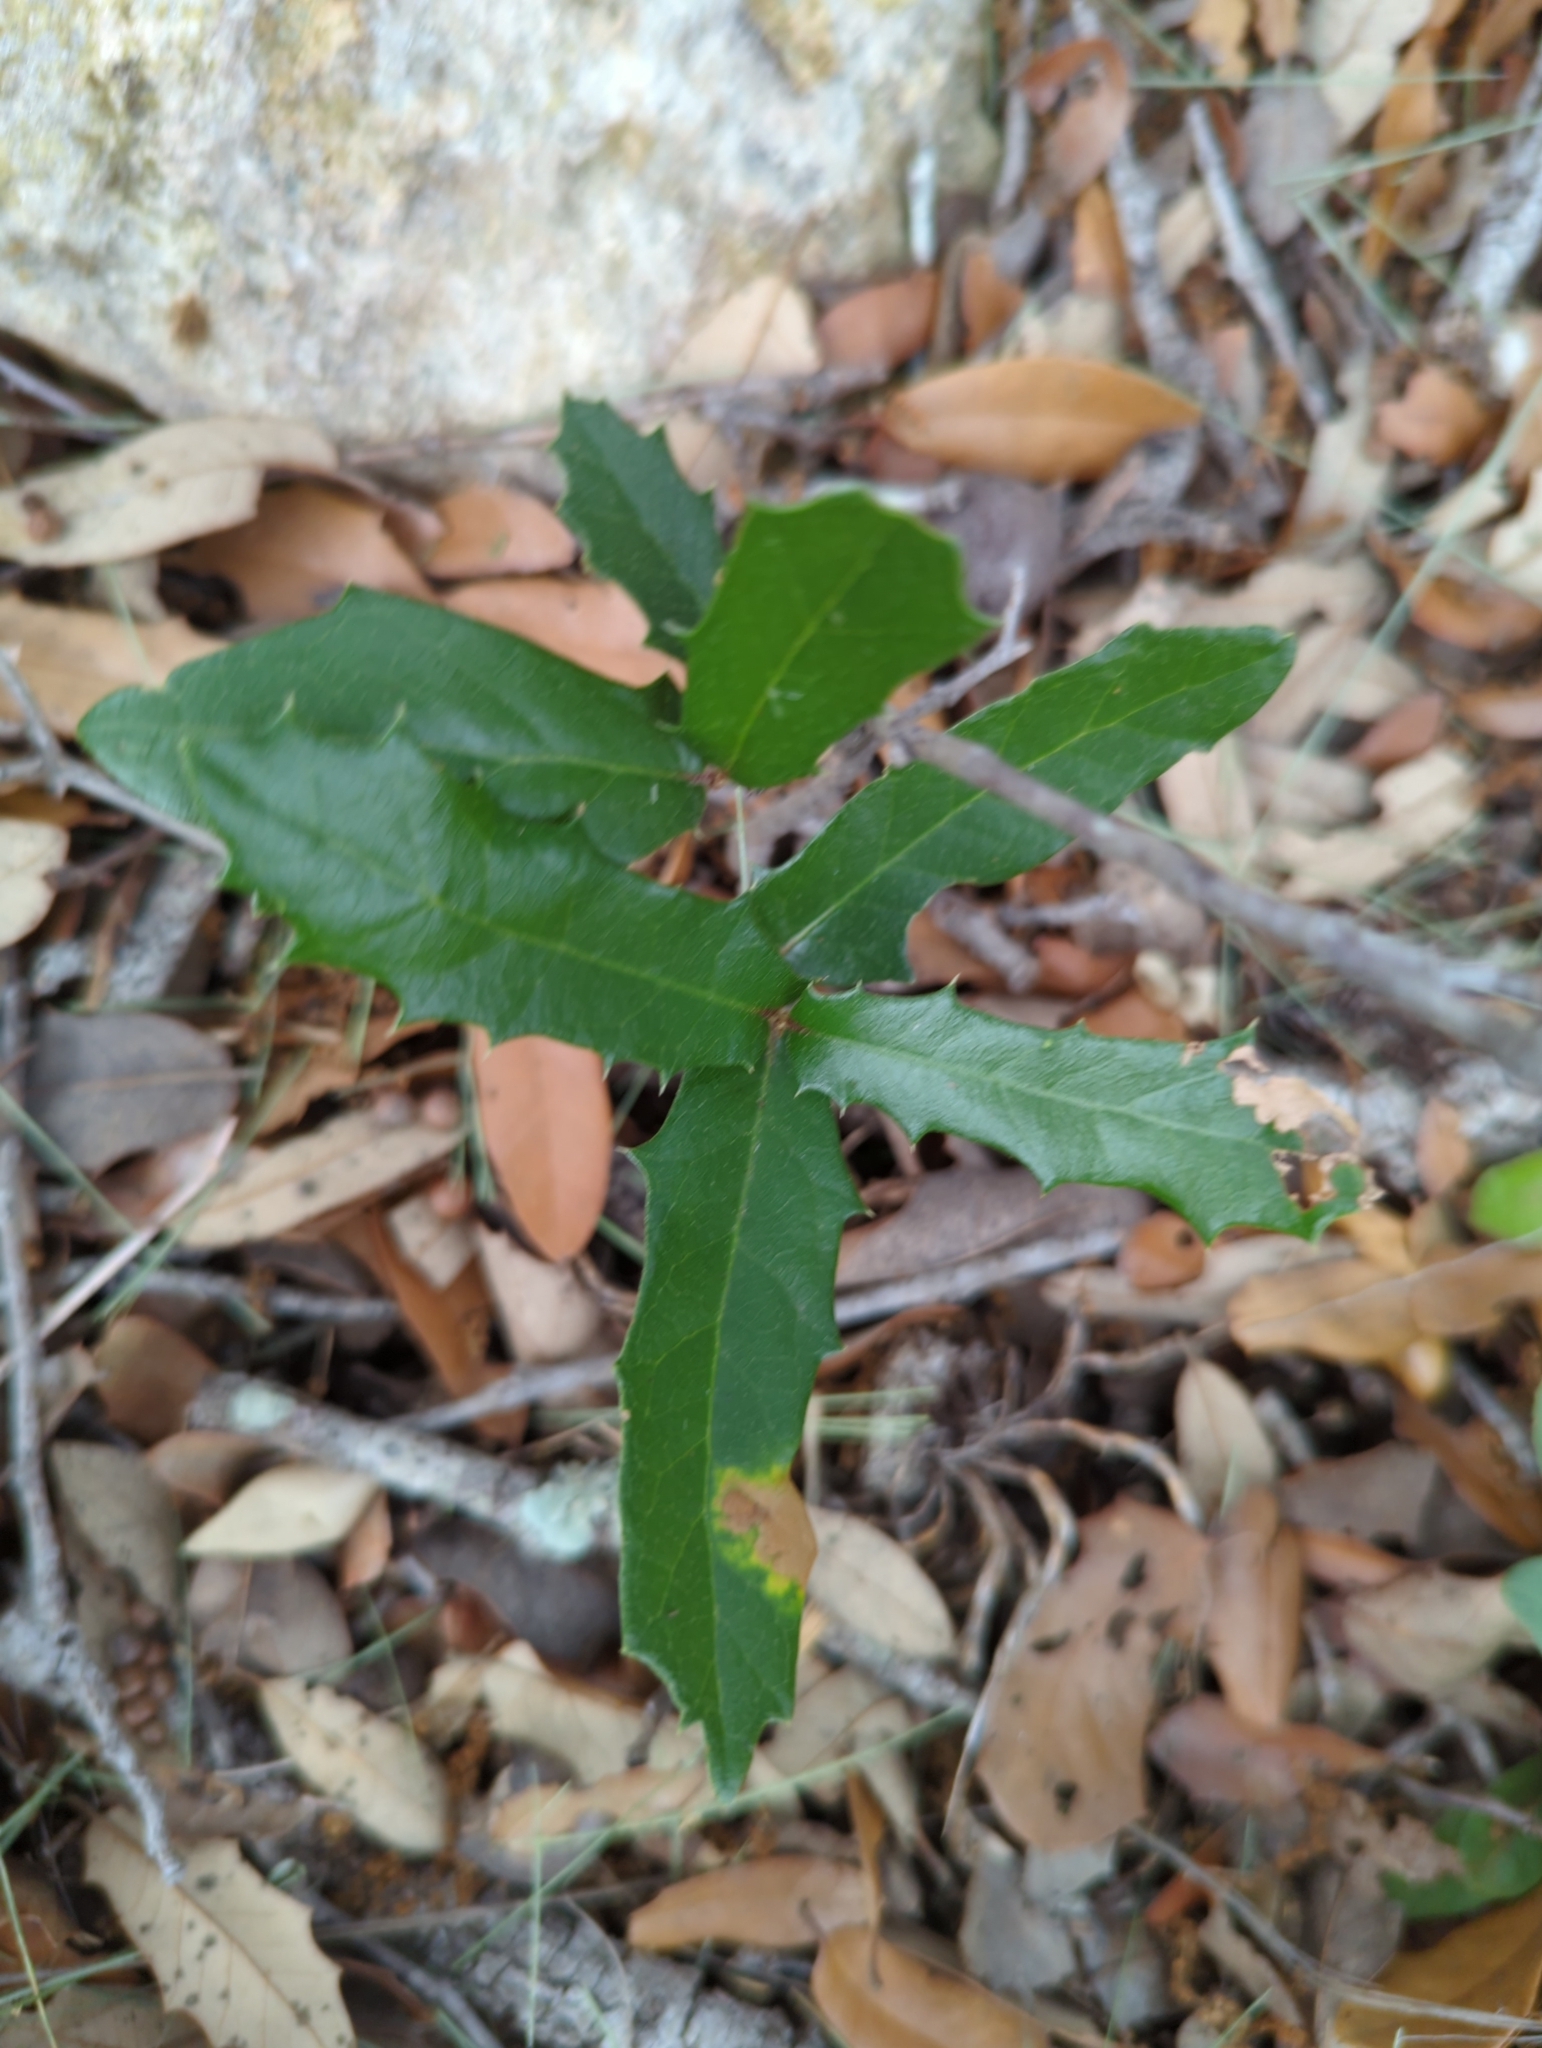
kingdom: Plantae
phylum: Tracheophyta
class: Magnoliopsida
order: Fagales
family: Fagaceae
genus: Quercus
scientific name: Quercus fusiformis
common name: Texas live oak
